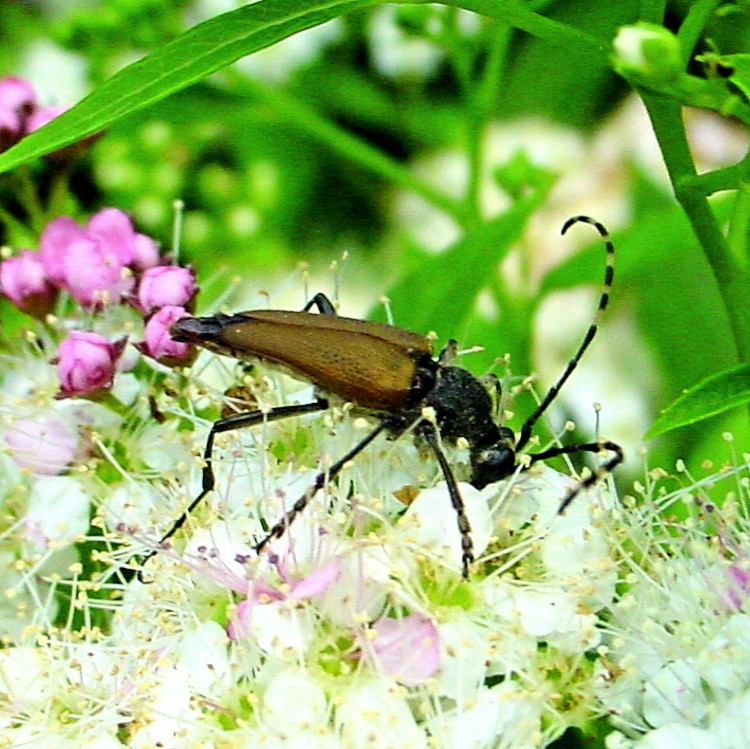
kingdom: Animalia
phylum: Arthropoda
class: Insecta
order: Coleoptera
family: Cerambycidae
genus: Brachyleptura
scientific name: Brachyleptura rubrica
